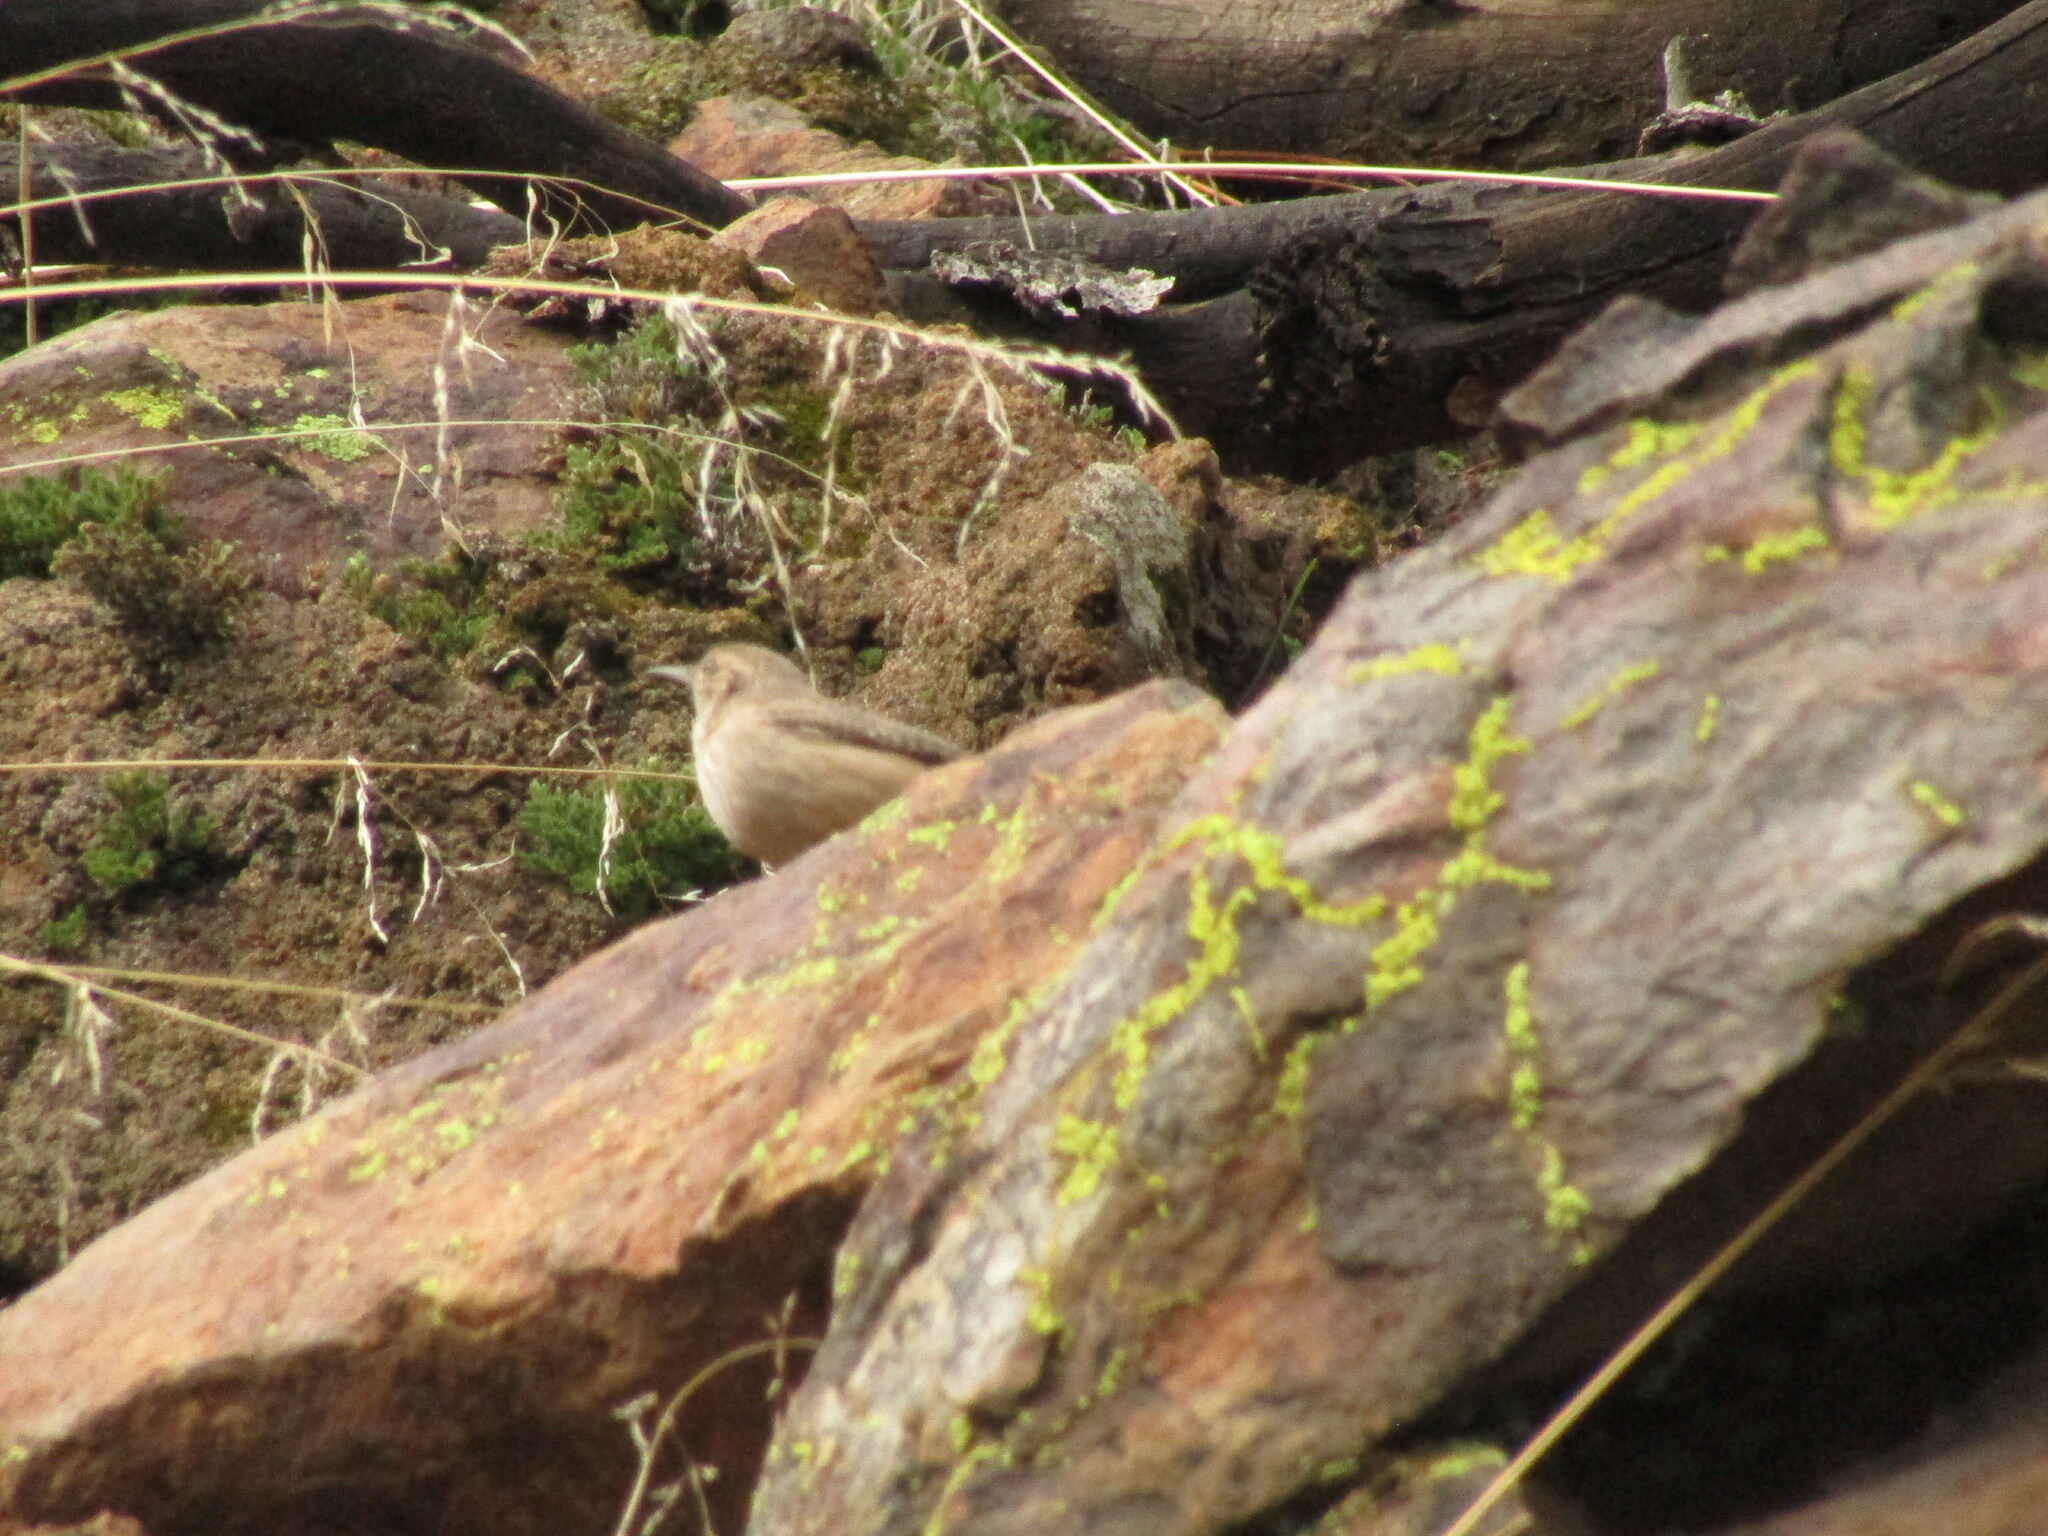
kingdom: Animalia
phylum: Chordata
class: Aves
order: Passeriformes
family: Troglodytidae
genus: Salpinctes
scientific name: Salpinctes obsoletus
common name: Rock wren
